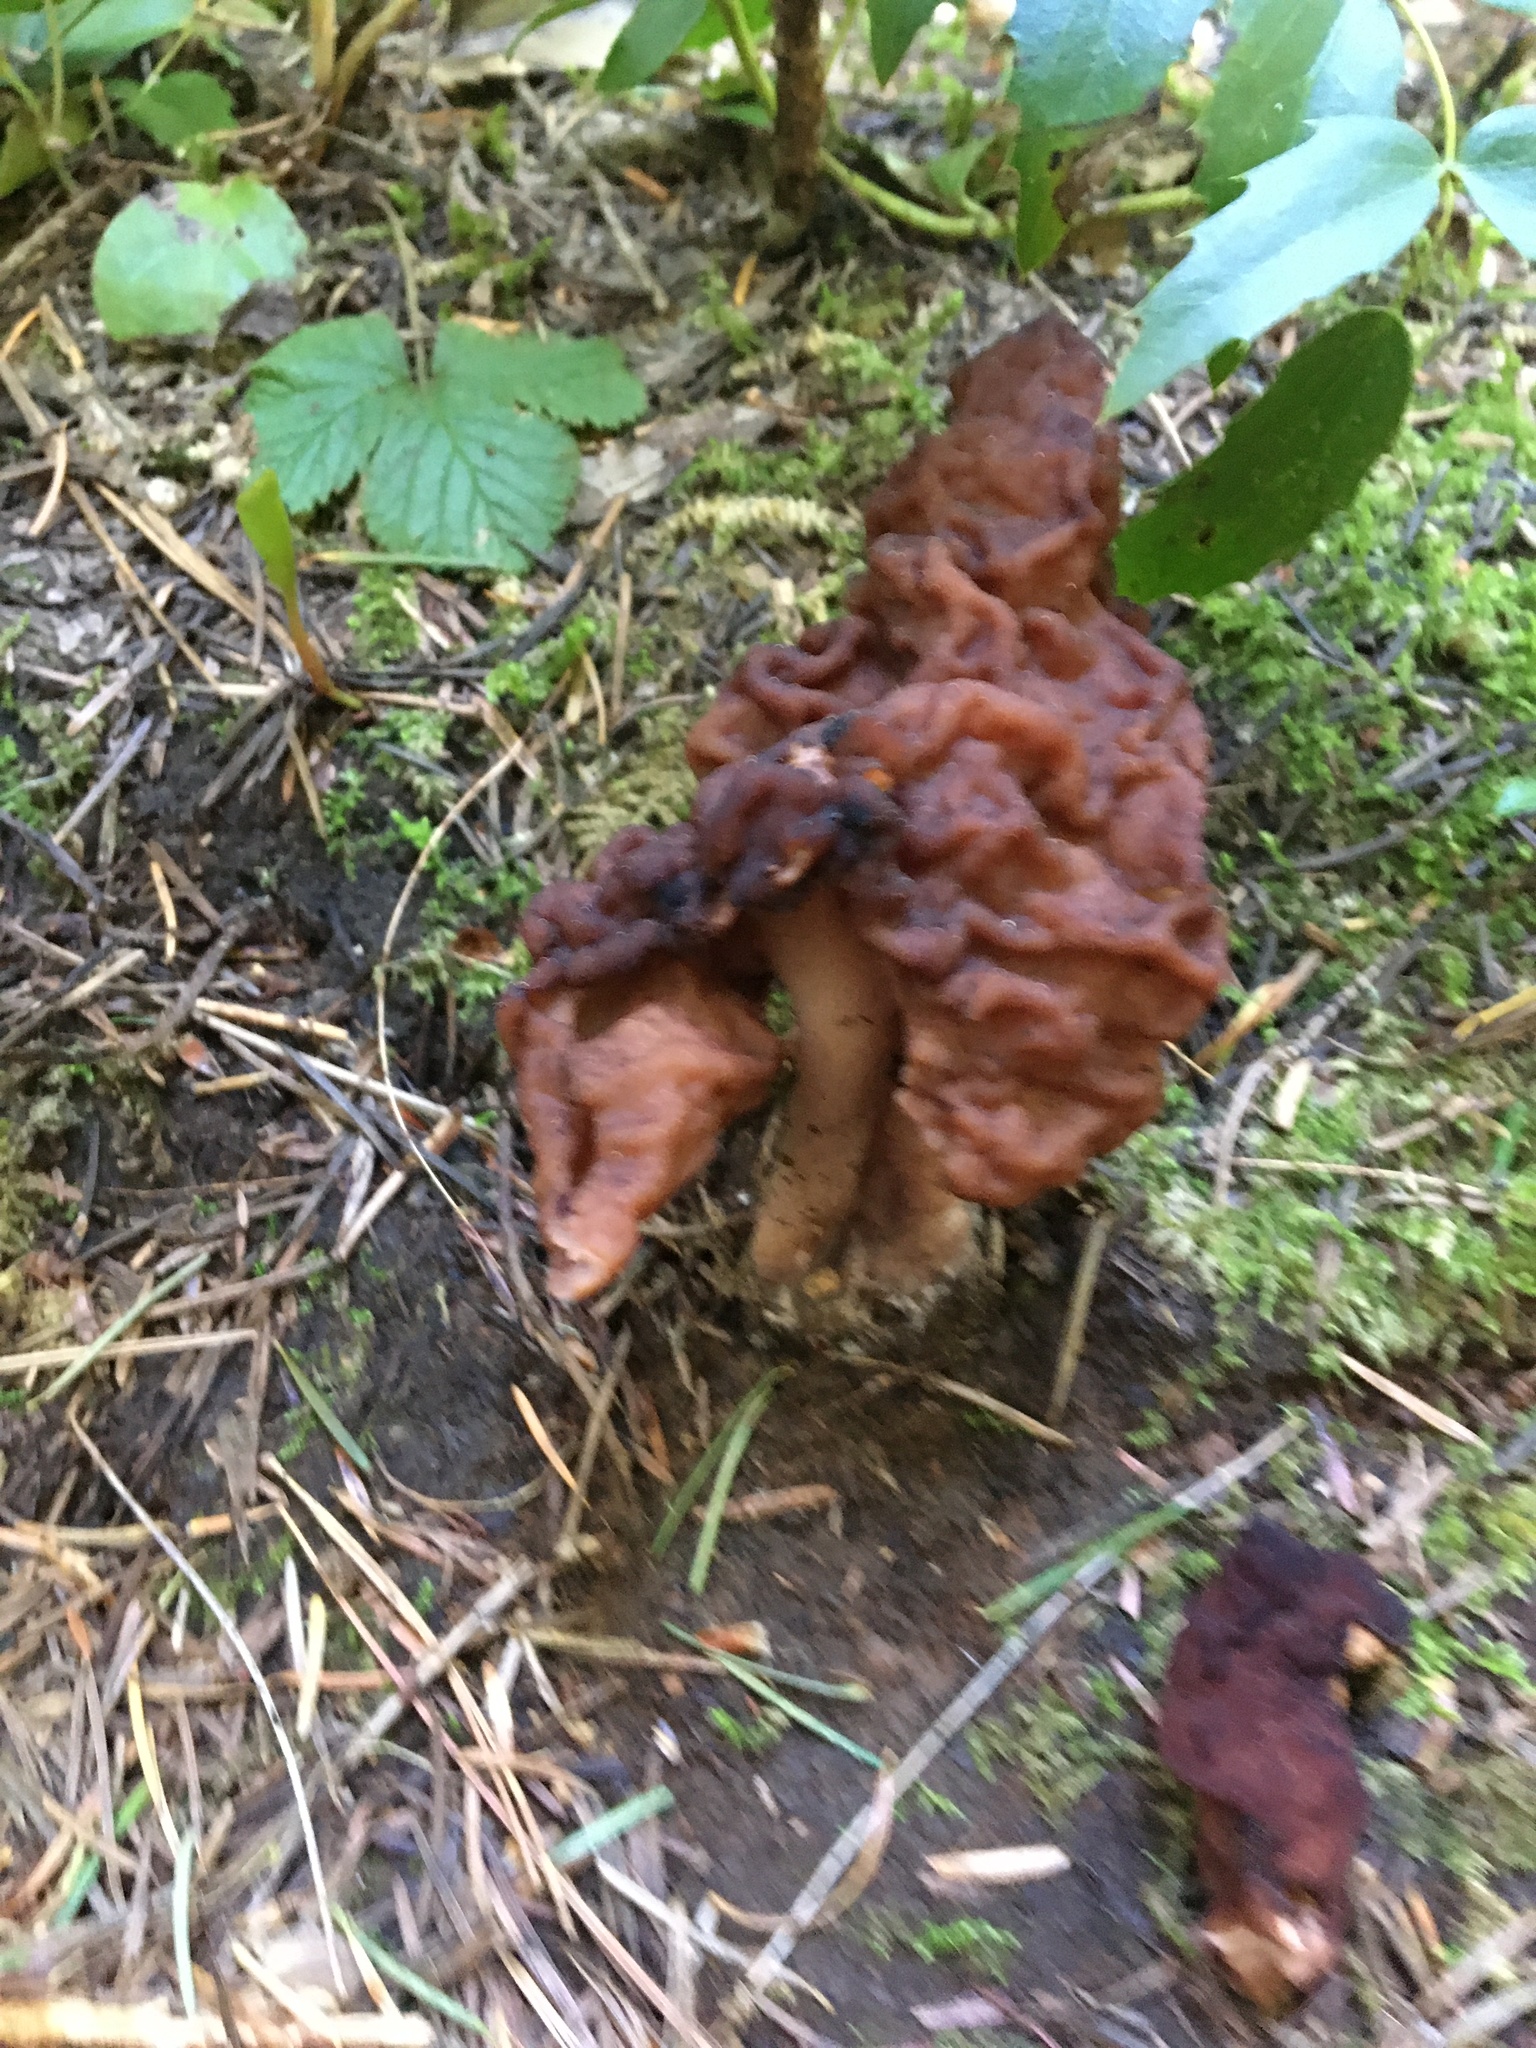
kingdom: Fungi
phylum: Ascomycota
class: Pezizomycetes
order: Pezizales
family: Discinaceae
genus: Gyromitra
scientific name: Gyromitra esculenta
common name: False morel
